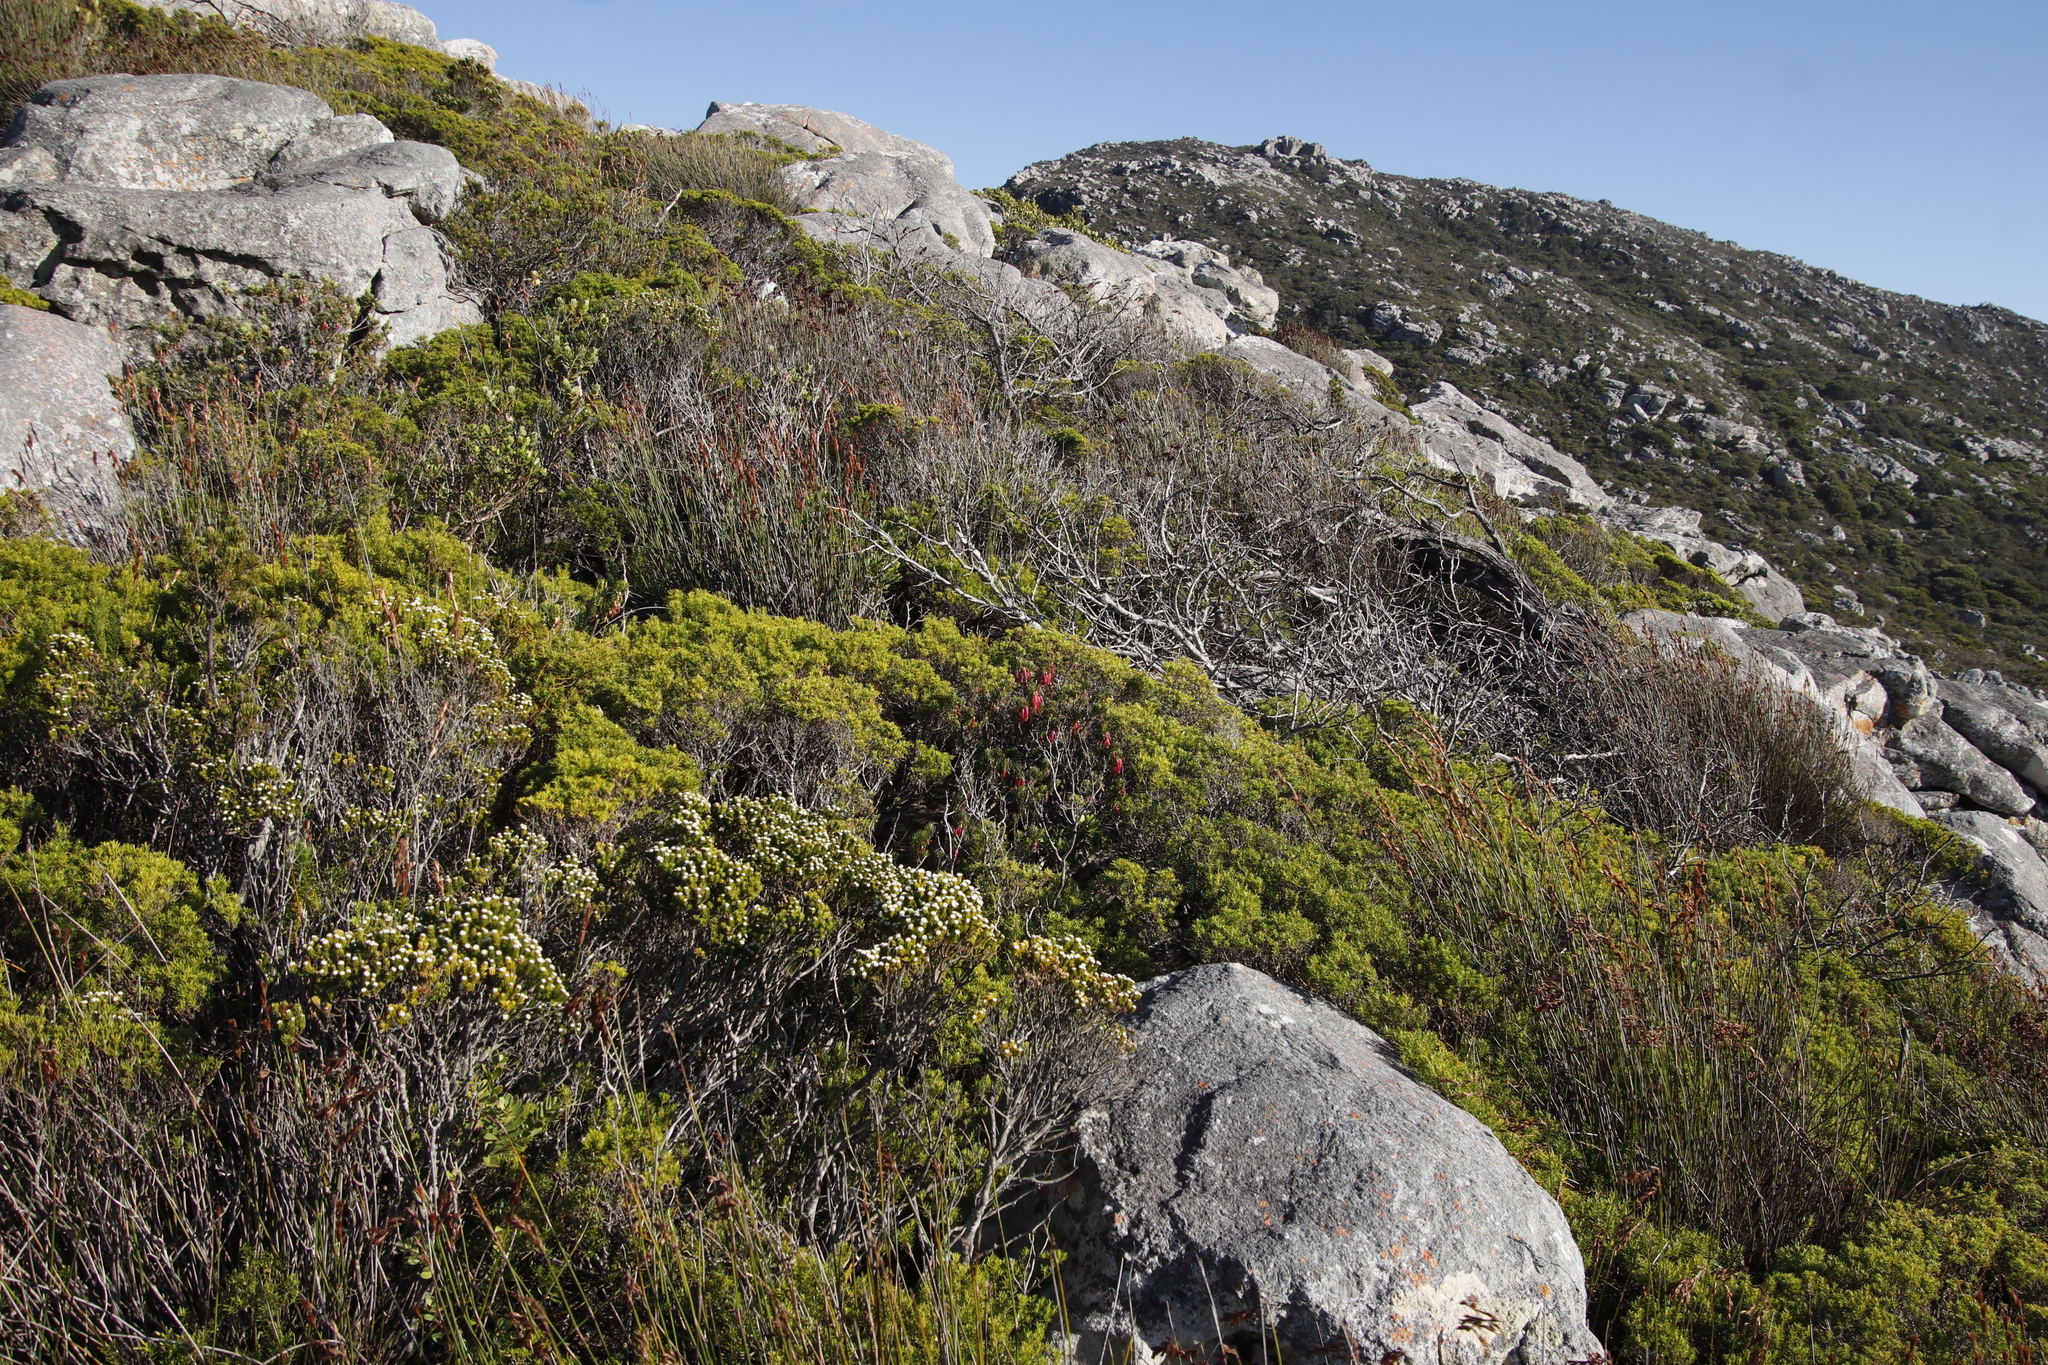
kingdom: Plantae
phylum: Tracheophyta
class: Magnoliopsida
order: Ericales
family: Ericaceae
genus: Erica
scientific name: Erica plukenetii
